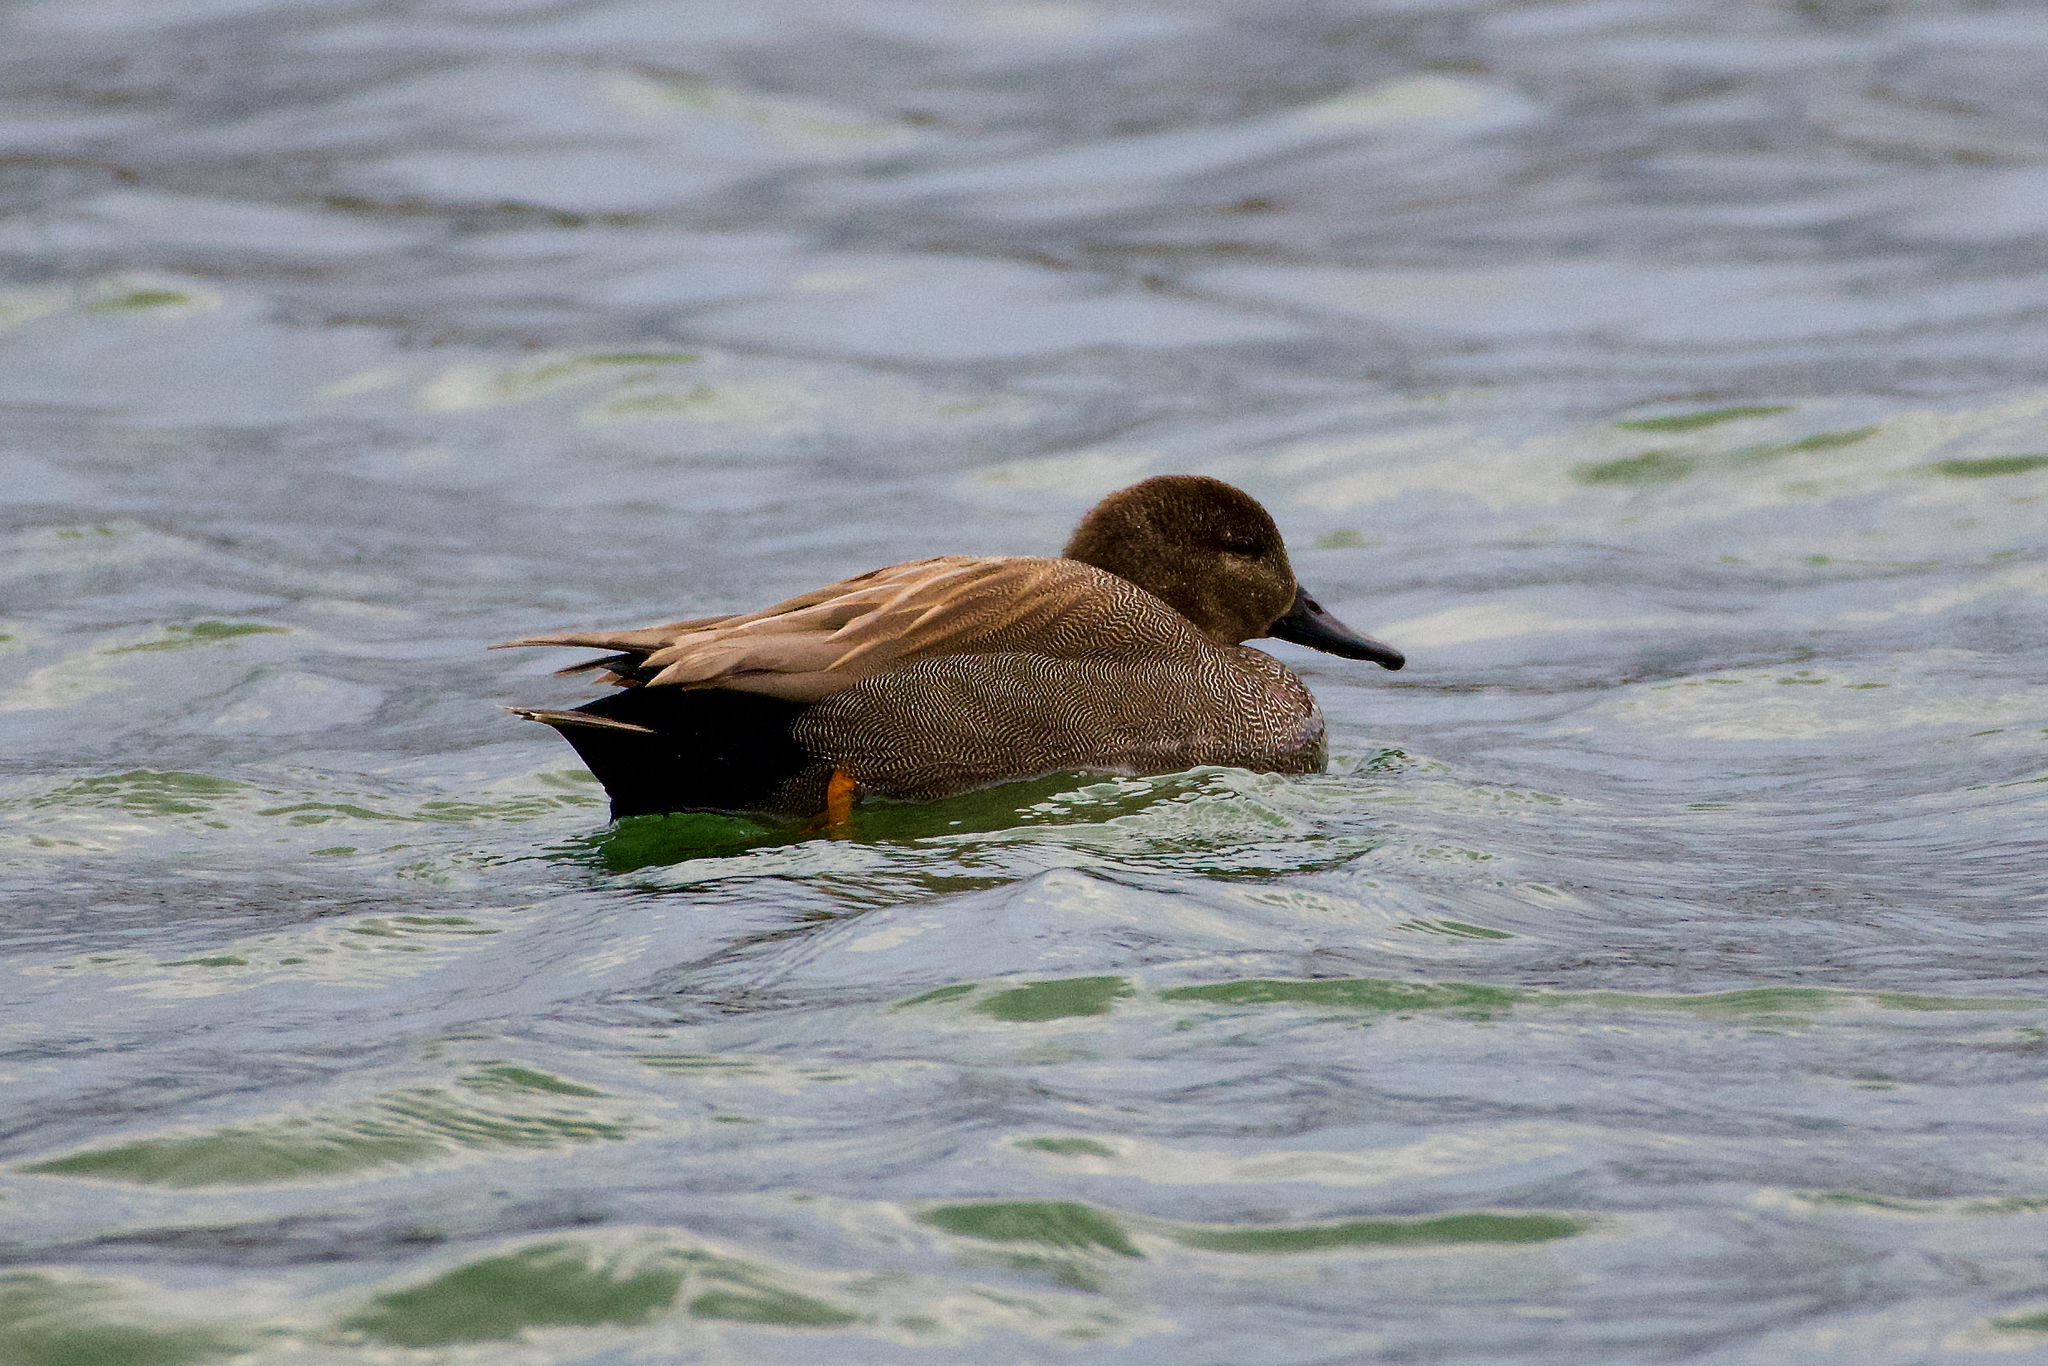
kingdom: Animalia
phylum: Chordata
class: Aves
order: Anseriformes
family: Anatidae
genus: Mareca
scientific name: Mareca strepera
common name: Gadwall
